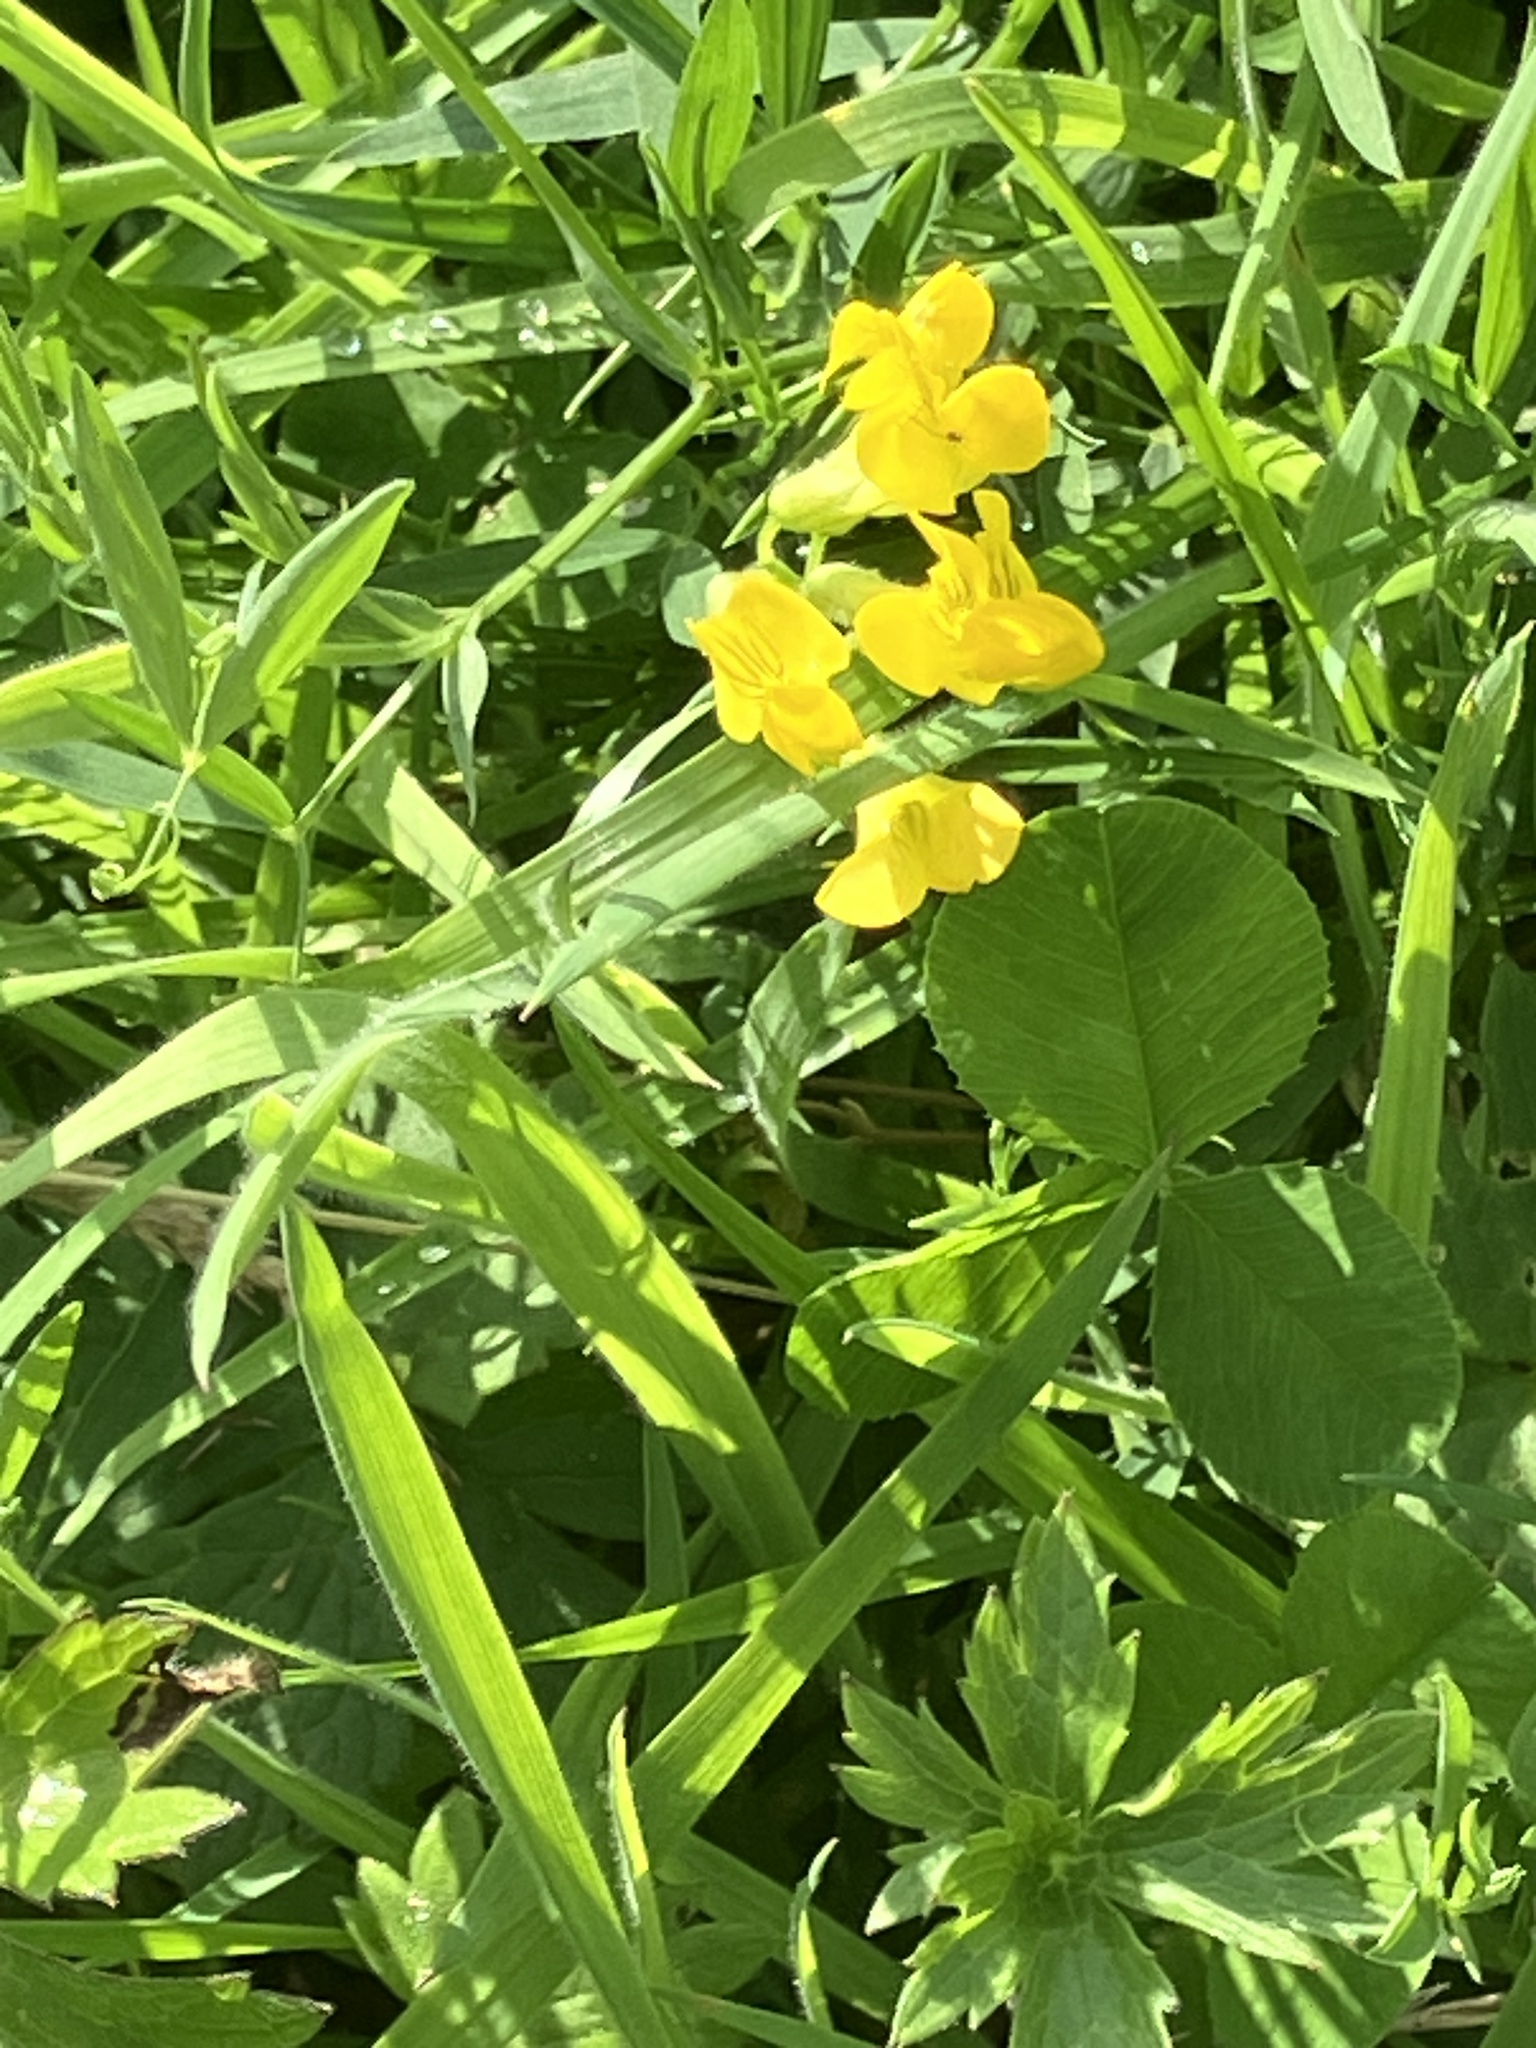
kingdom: Plantae
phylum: Tracheophyta
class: Magnoliopsida
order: Fabales
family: Fabaceae
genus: Lathyrus
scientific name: Lathyrus pratensis
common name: Meadow vetchling
